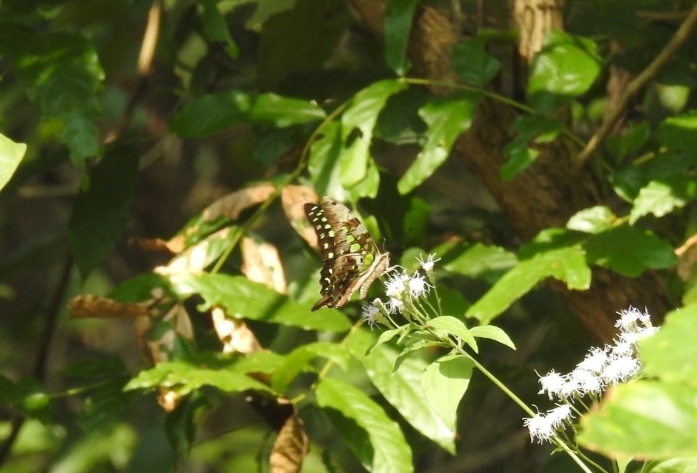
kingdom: Animalia
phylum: Arthropoda
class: Insecta
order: Lepidoptera
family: Papilionidae
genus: Graphium
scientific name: Graphium agamemnon
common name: Tailed jay
